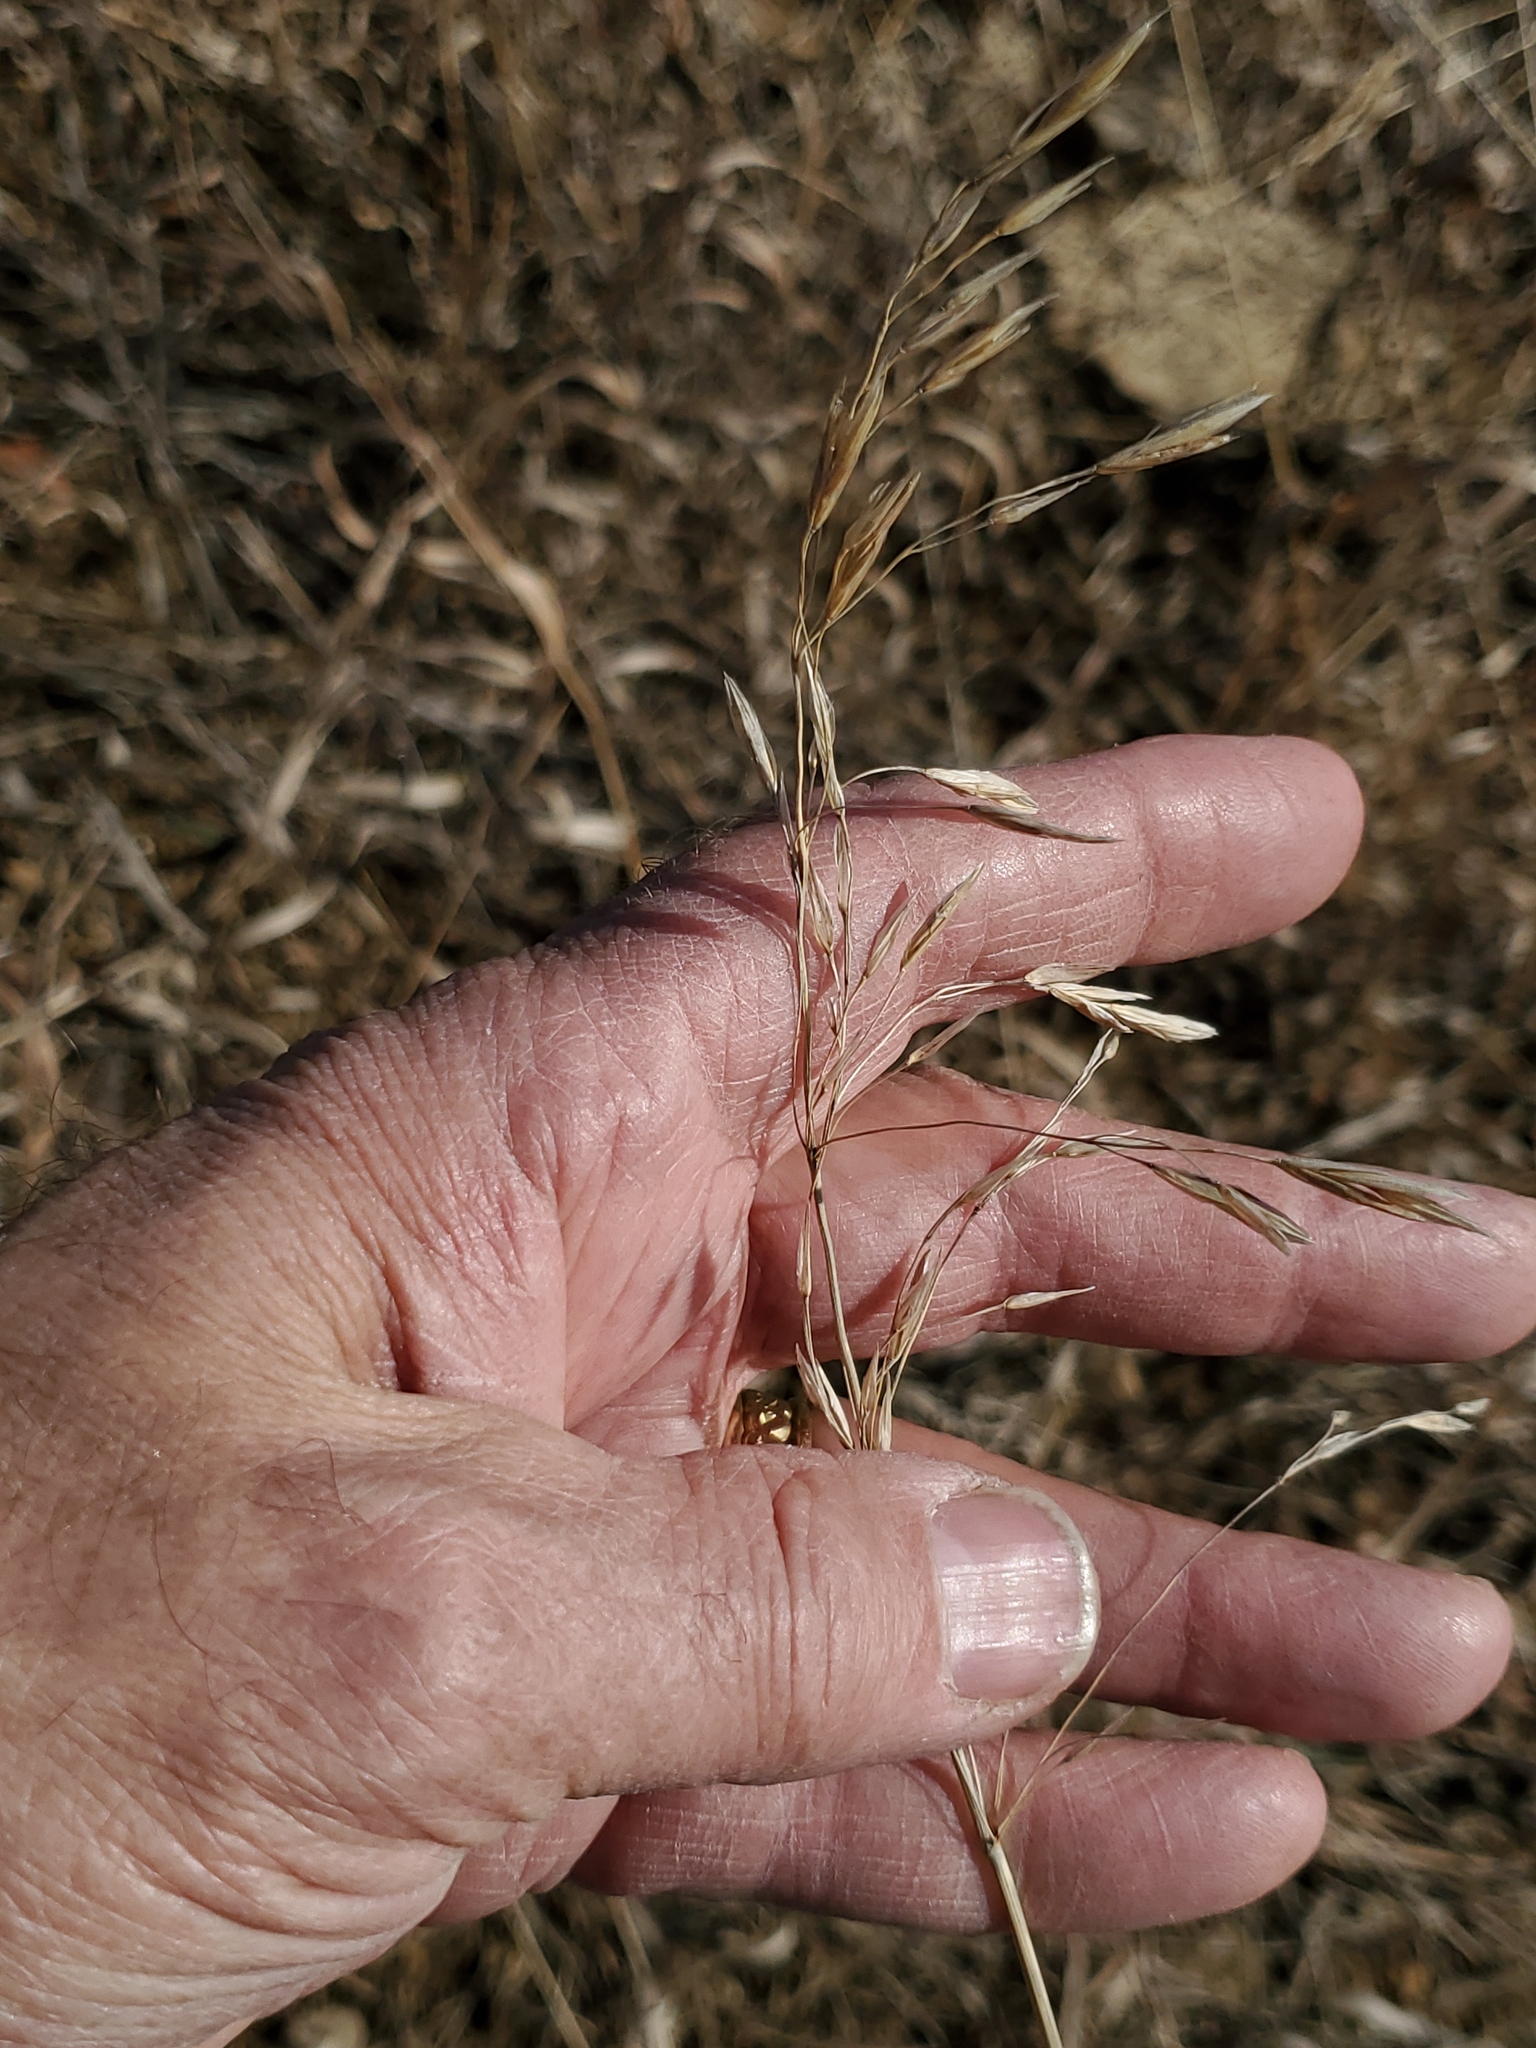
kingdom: Plantae
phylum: Tracheophyta
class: Liliopsida
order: Poales
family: Poaceae
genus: Bromus
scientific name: Bromus inermis
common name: Smooth brome
